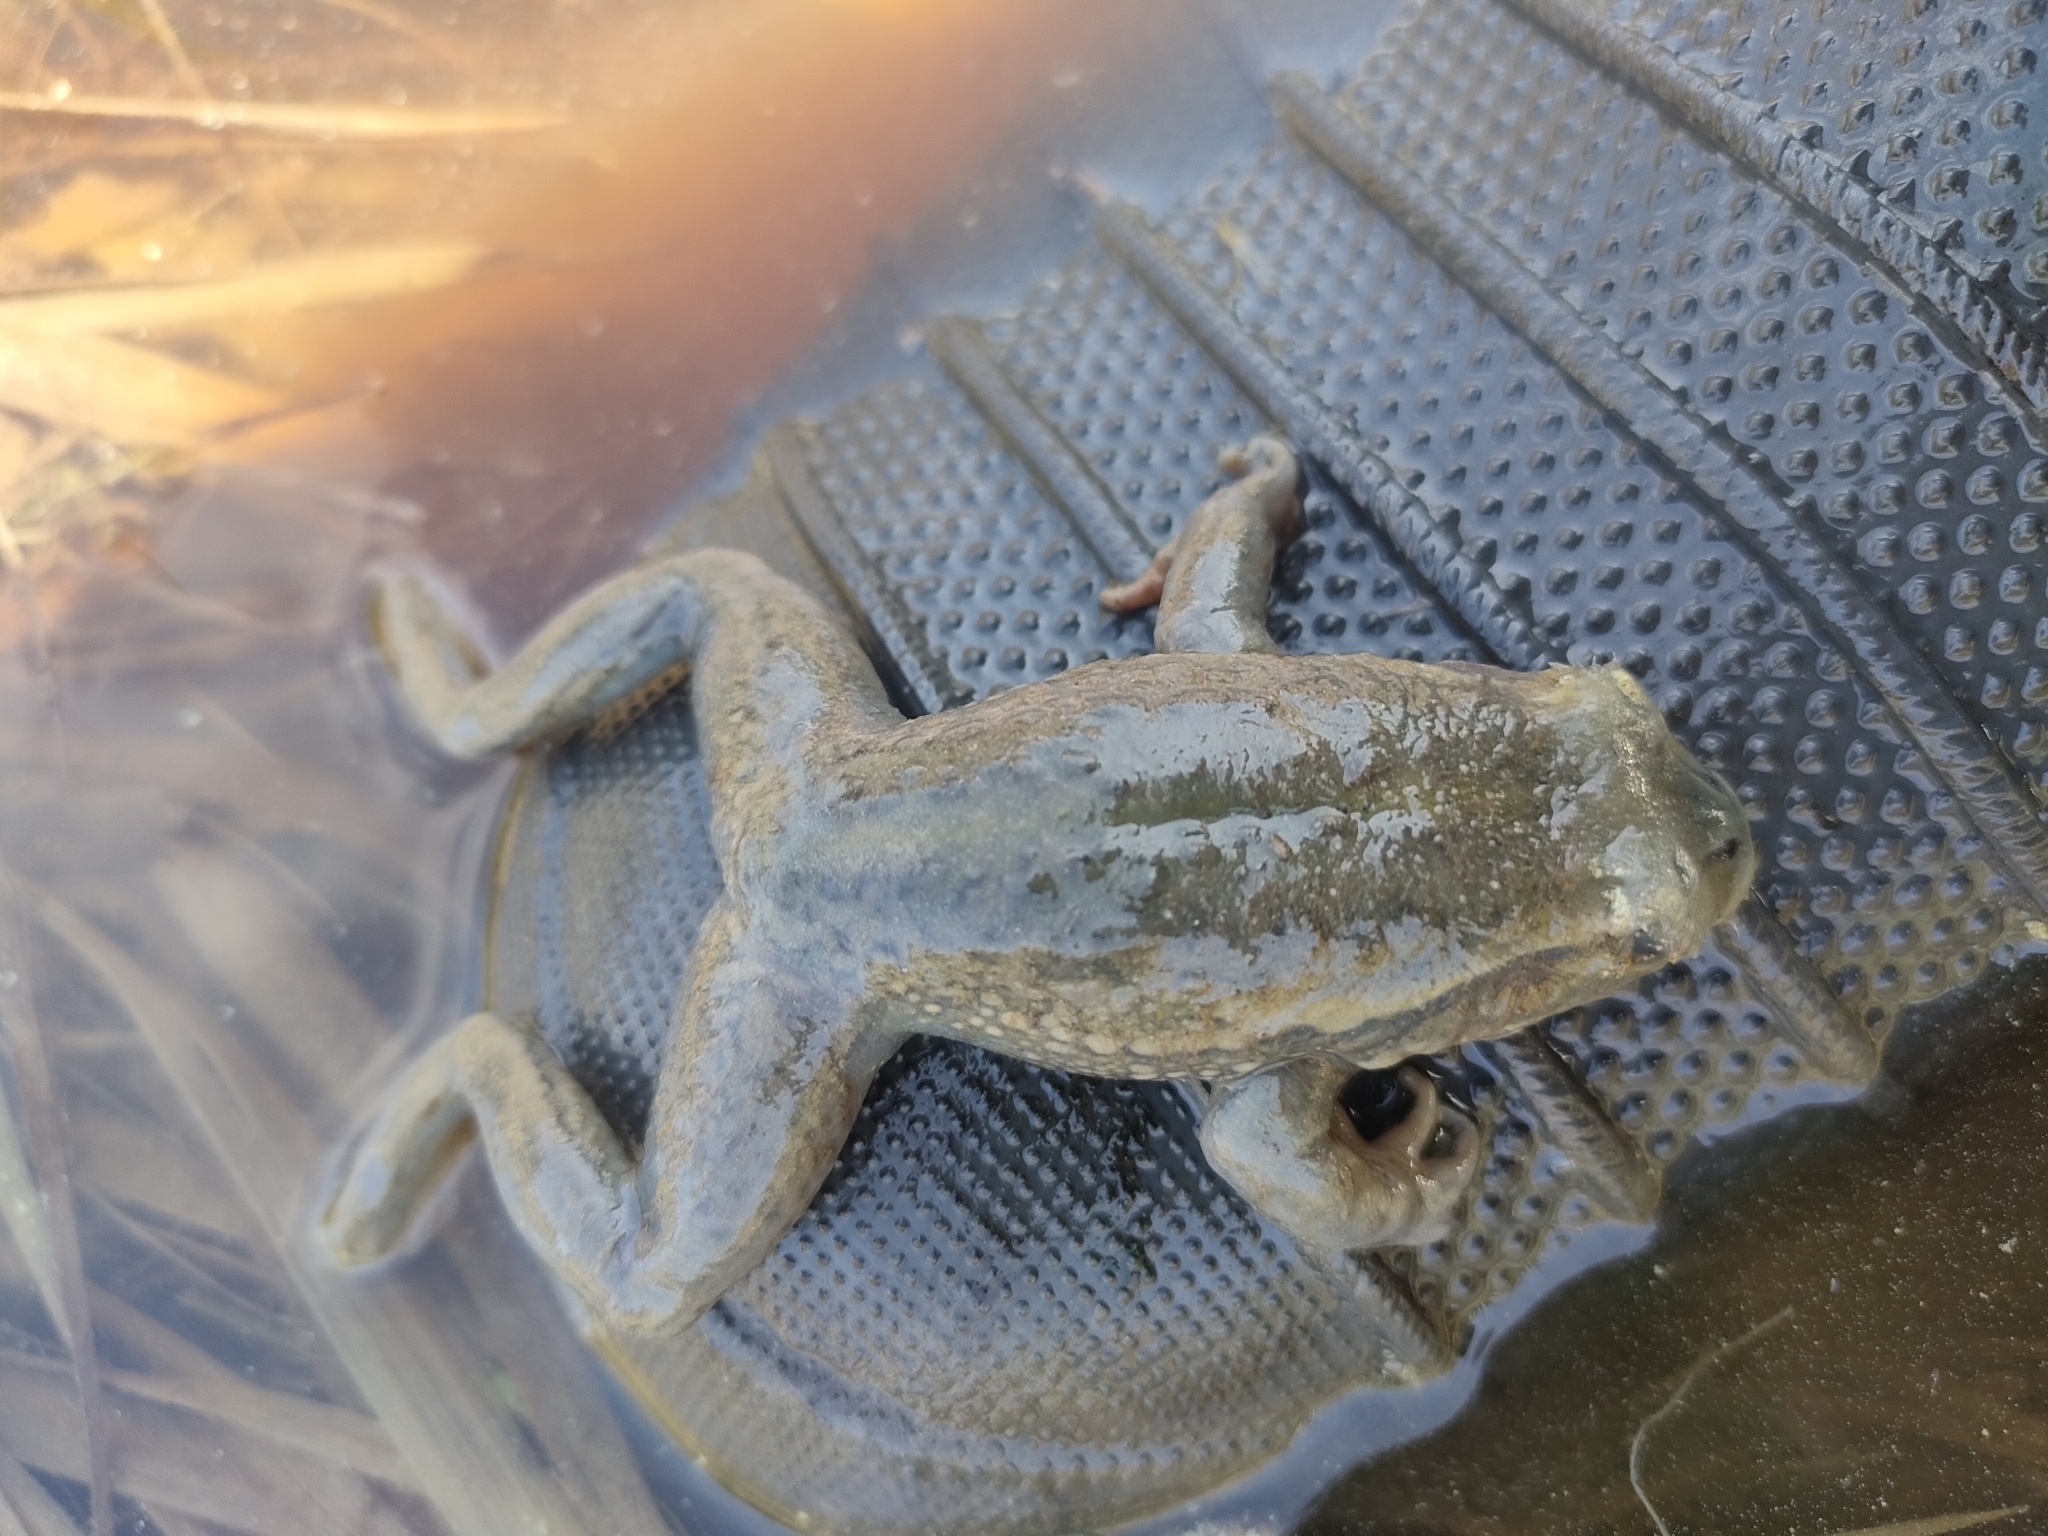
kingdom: Animalia
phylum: Chordata
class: Amphibia
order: Anura
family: Pelodryadidae
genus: Ranoidea
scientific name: Ranoidea raniformis
